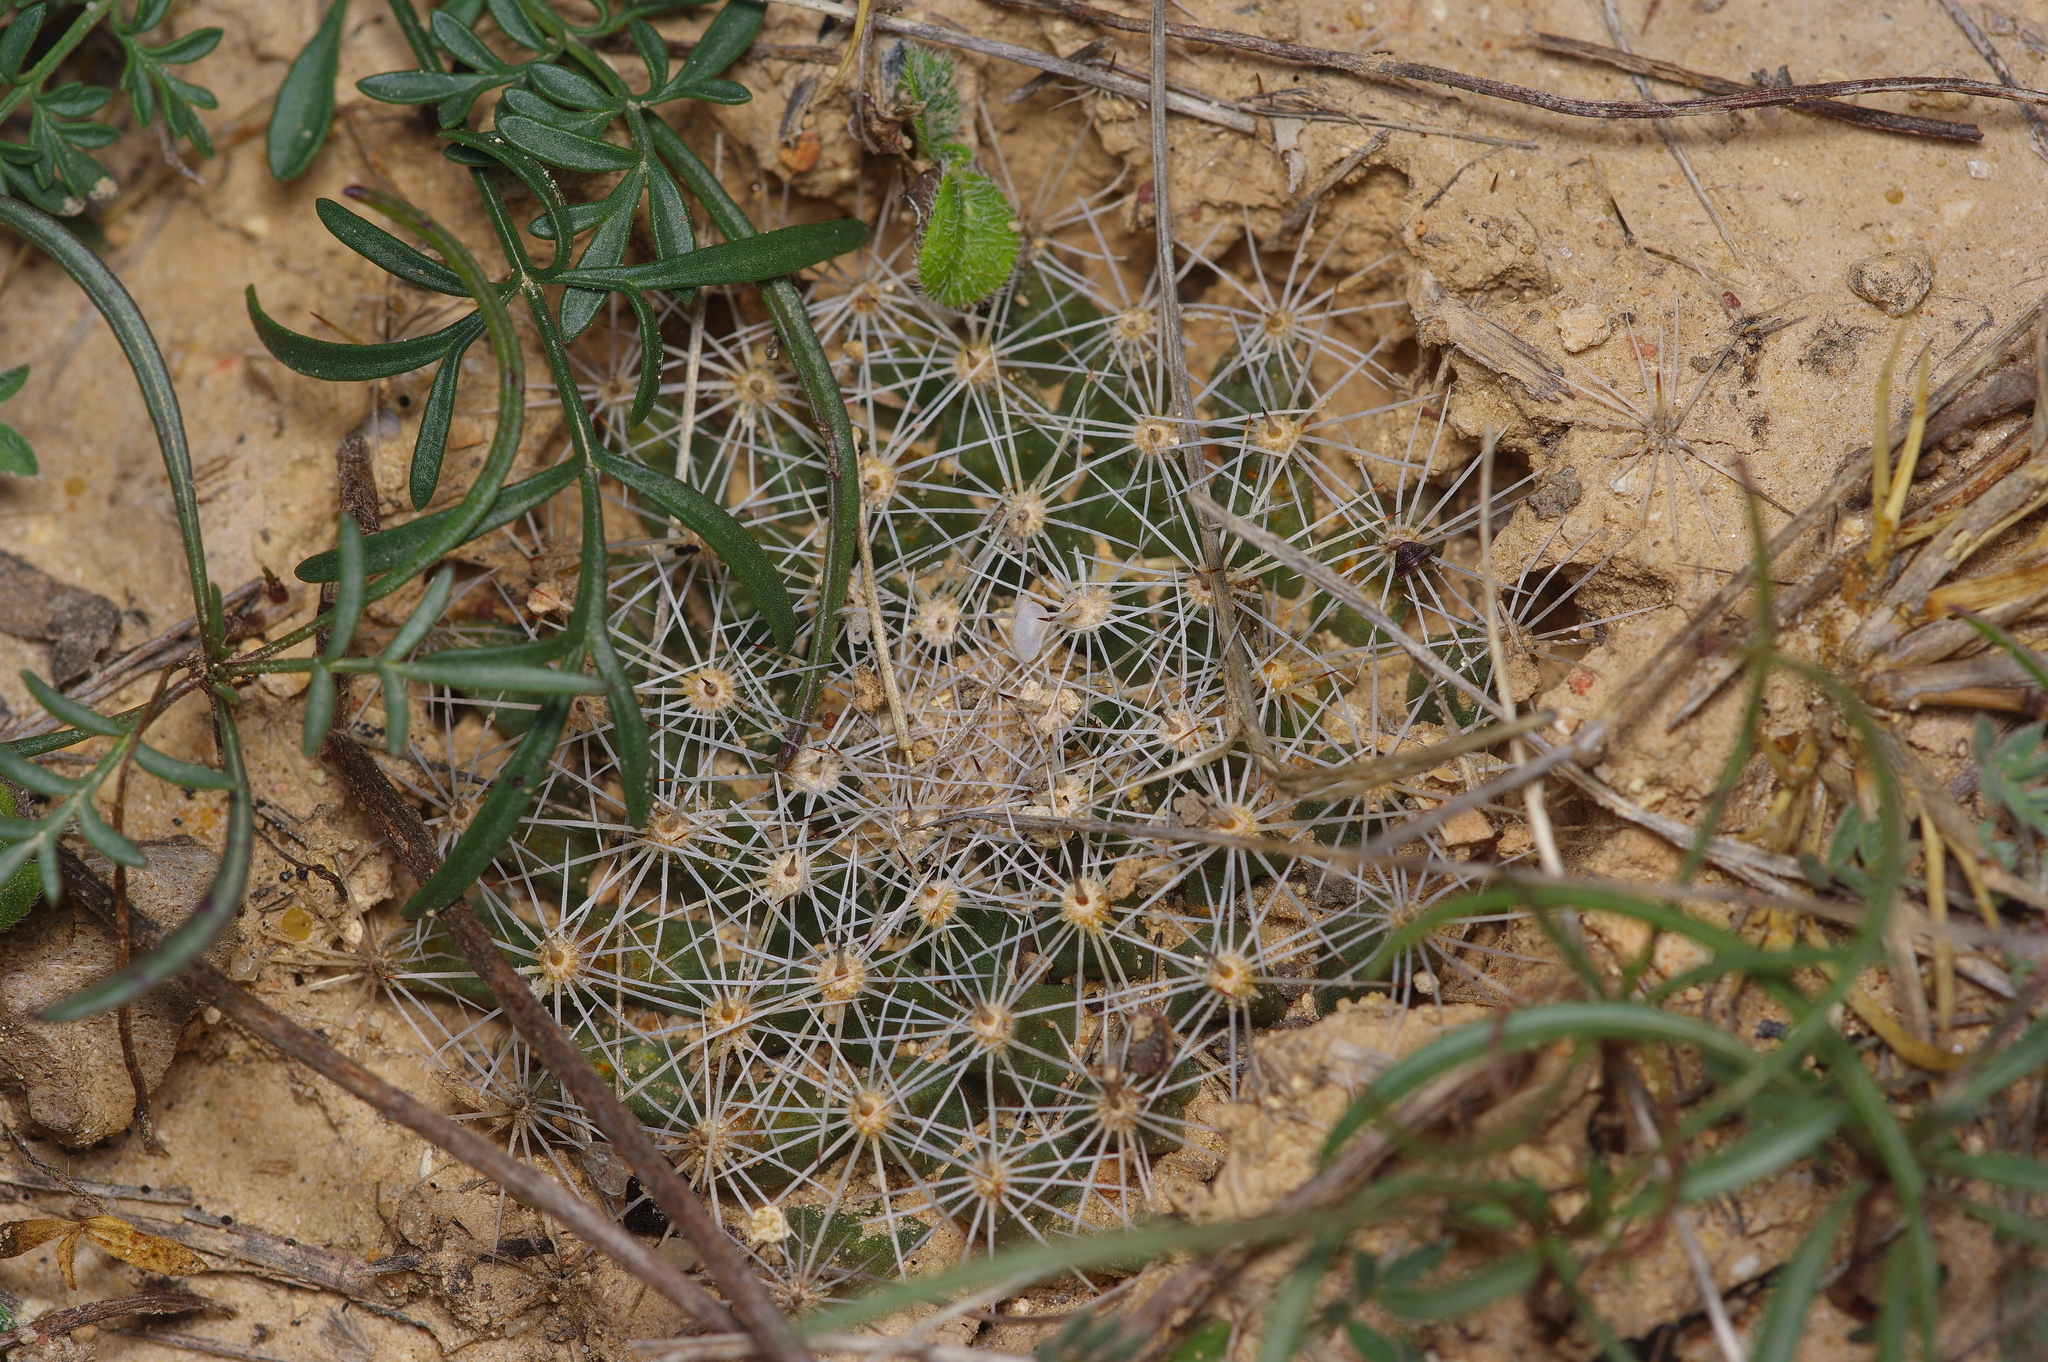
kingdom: Plantae
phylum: Tracheophyta
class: Magnoliopsida
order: Caryophyllales
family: Cactaceae
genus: Mammillaria
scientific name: Mammillaria heyderi
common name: Little nipple cactus
